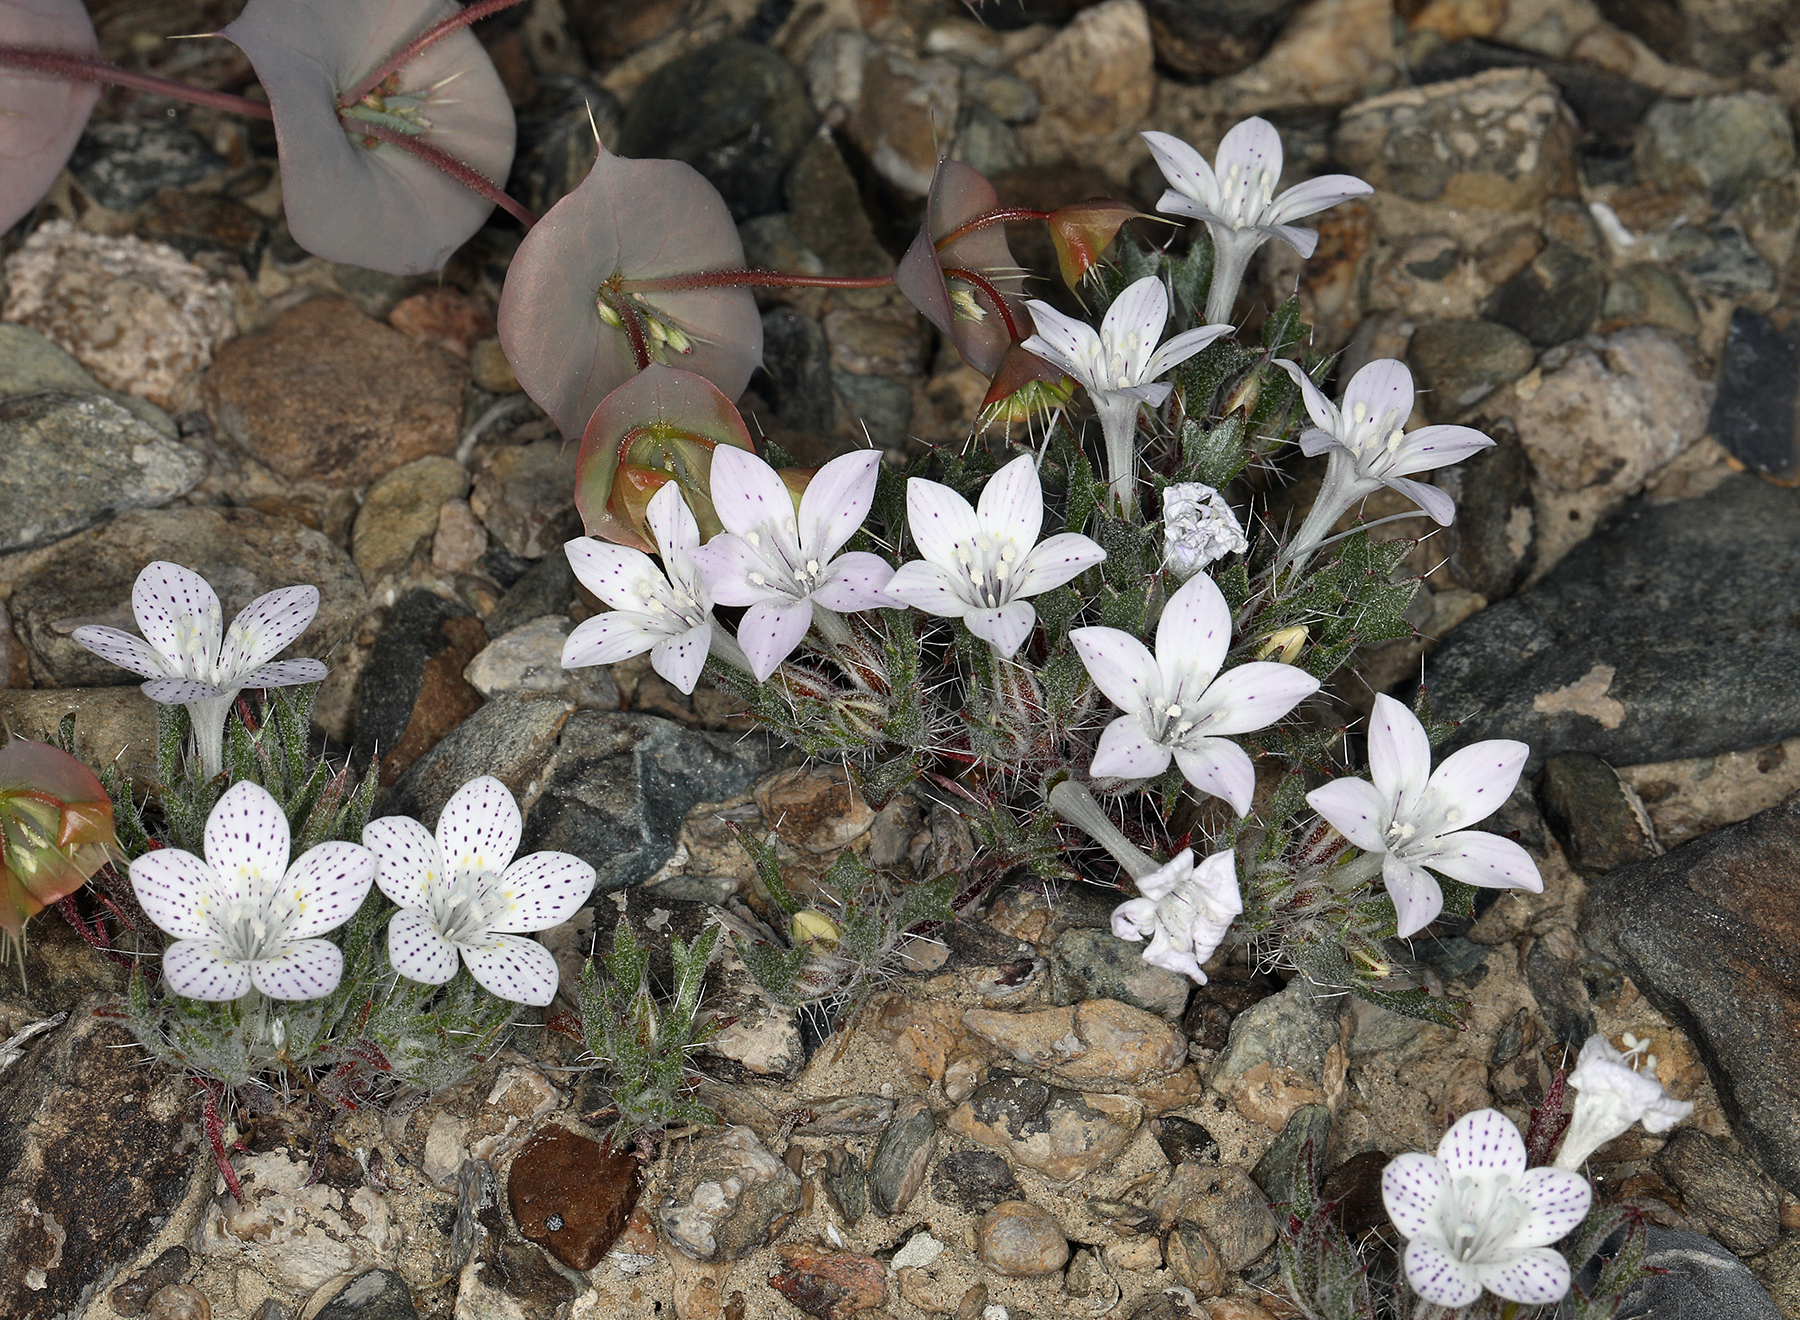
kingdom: Plantae
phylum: Tracheophyta
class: Magnoliopsida
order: Ericales
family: Polemoniaceae
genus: Langloisia
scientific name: Langloisia setosissima
